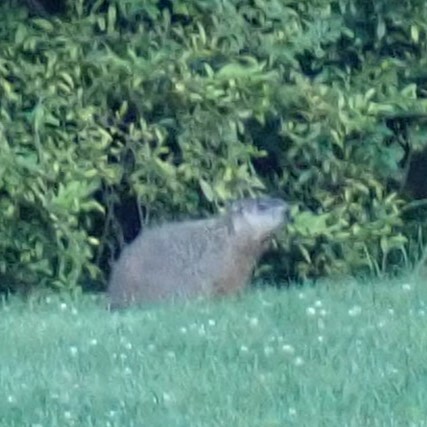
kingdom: Animalia
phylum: Chordata
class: Mammalia
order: Rodentia
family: Sciuridae
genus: Marmota
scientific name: Marmota monax
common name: Groundhog
